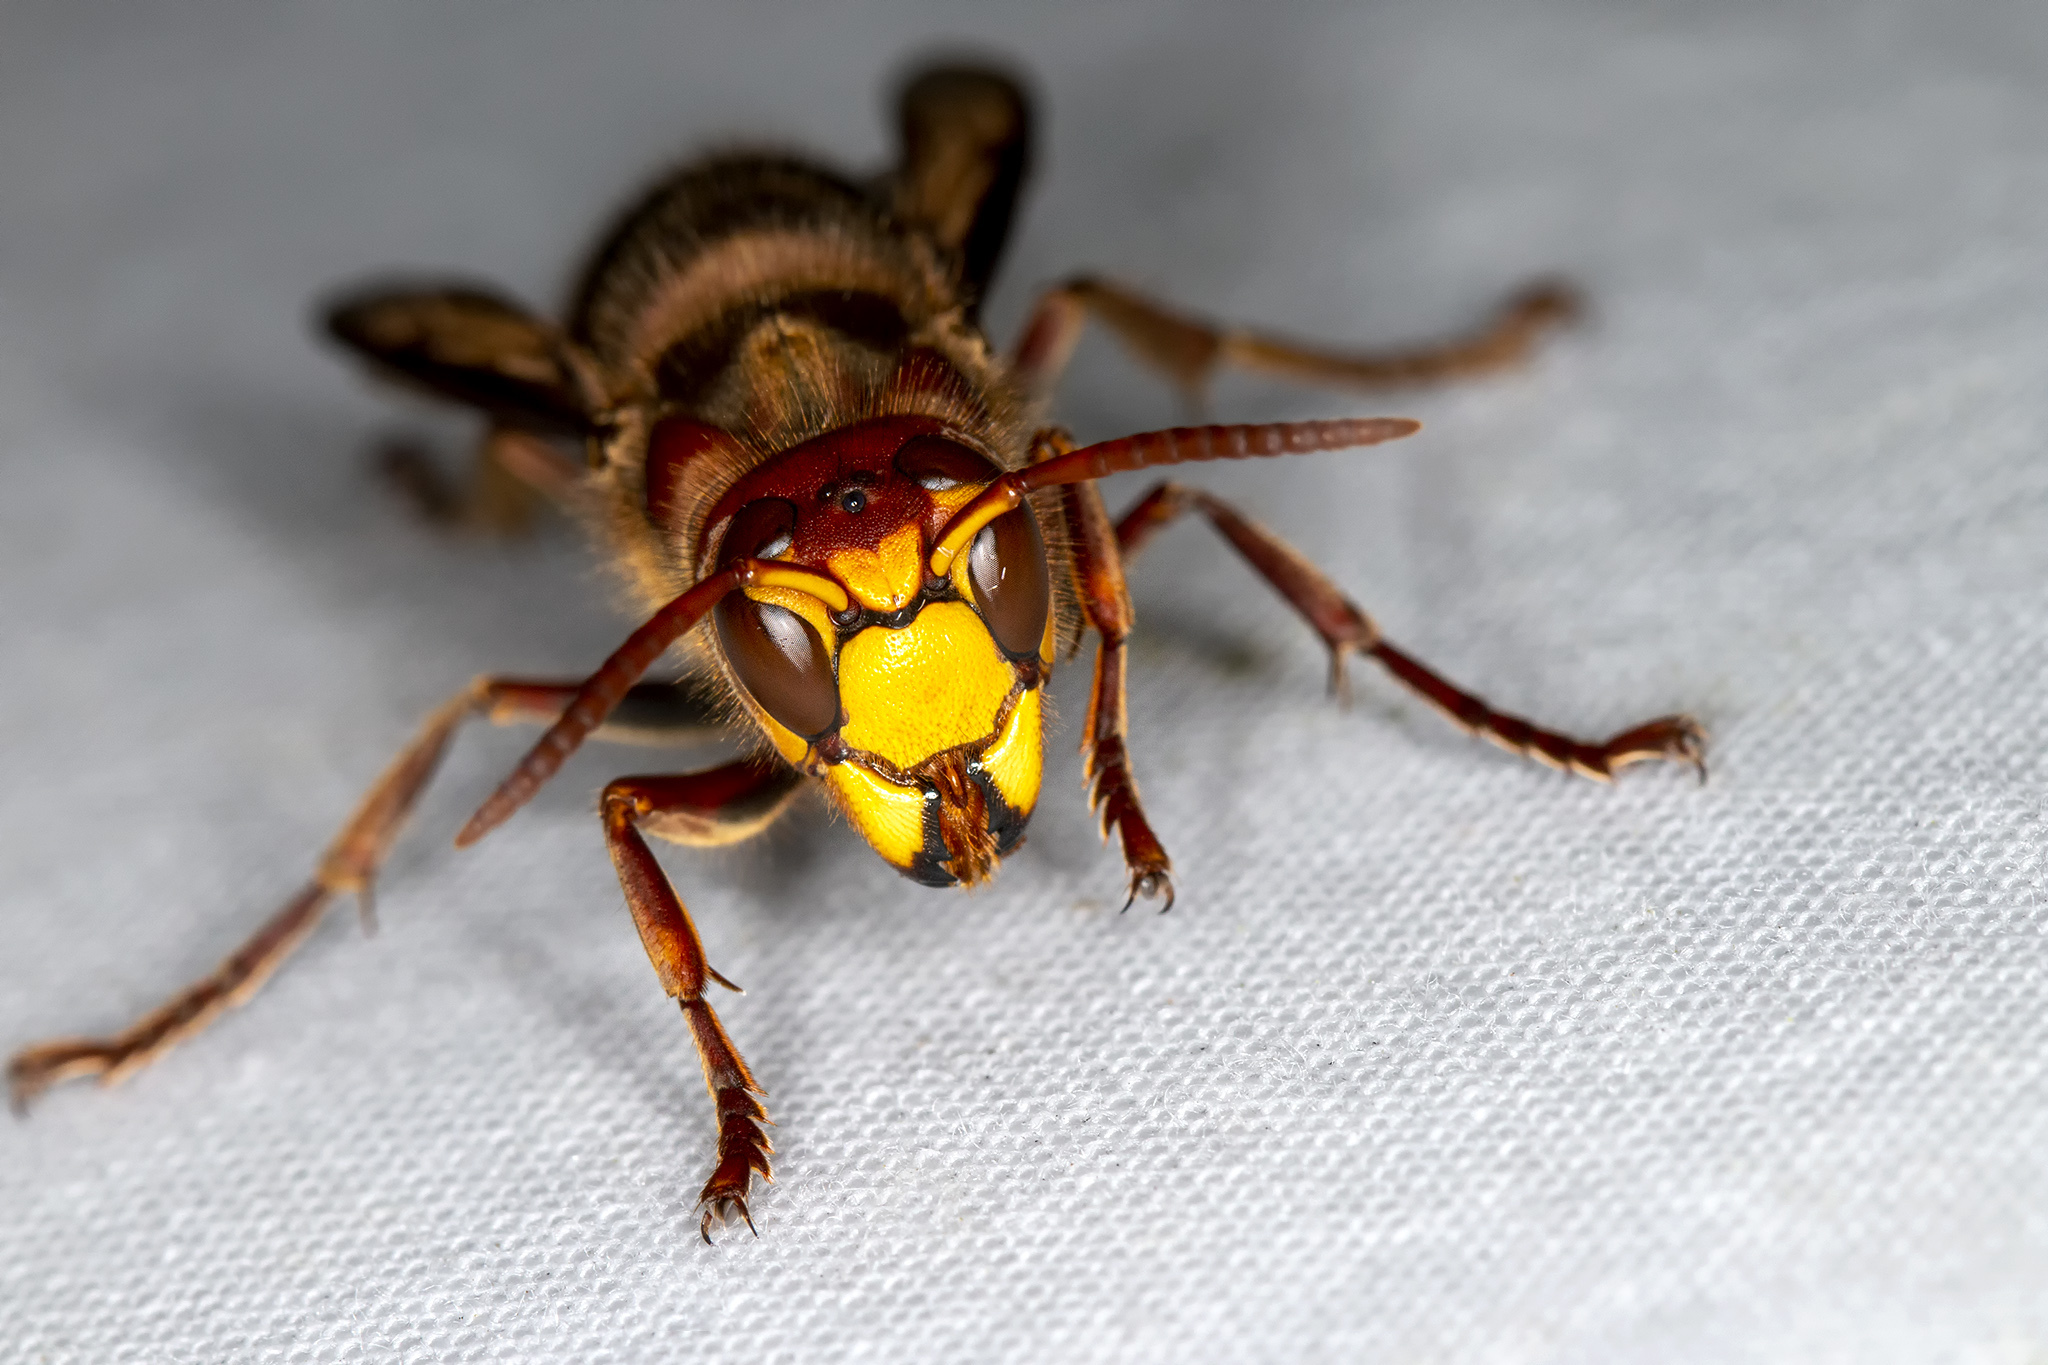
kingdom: Animalia
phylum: Arthropoda
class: Insecta
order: Hymenoptera
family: Vespidae
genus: Vespa
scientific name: Vespa crabro
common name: Hornet
